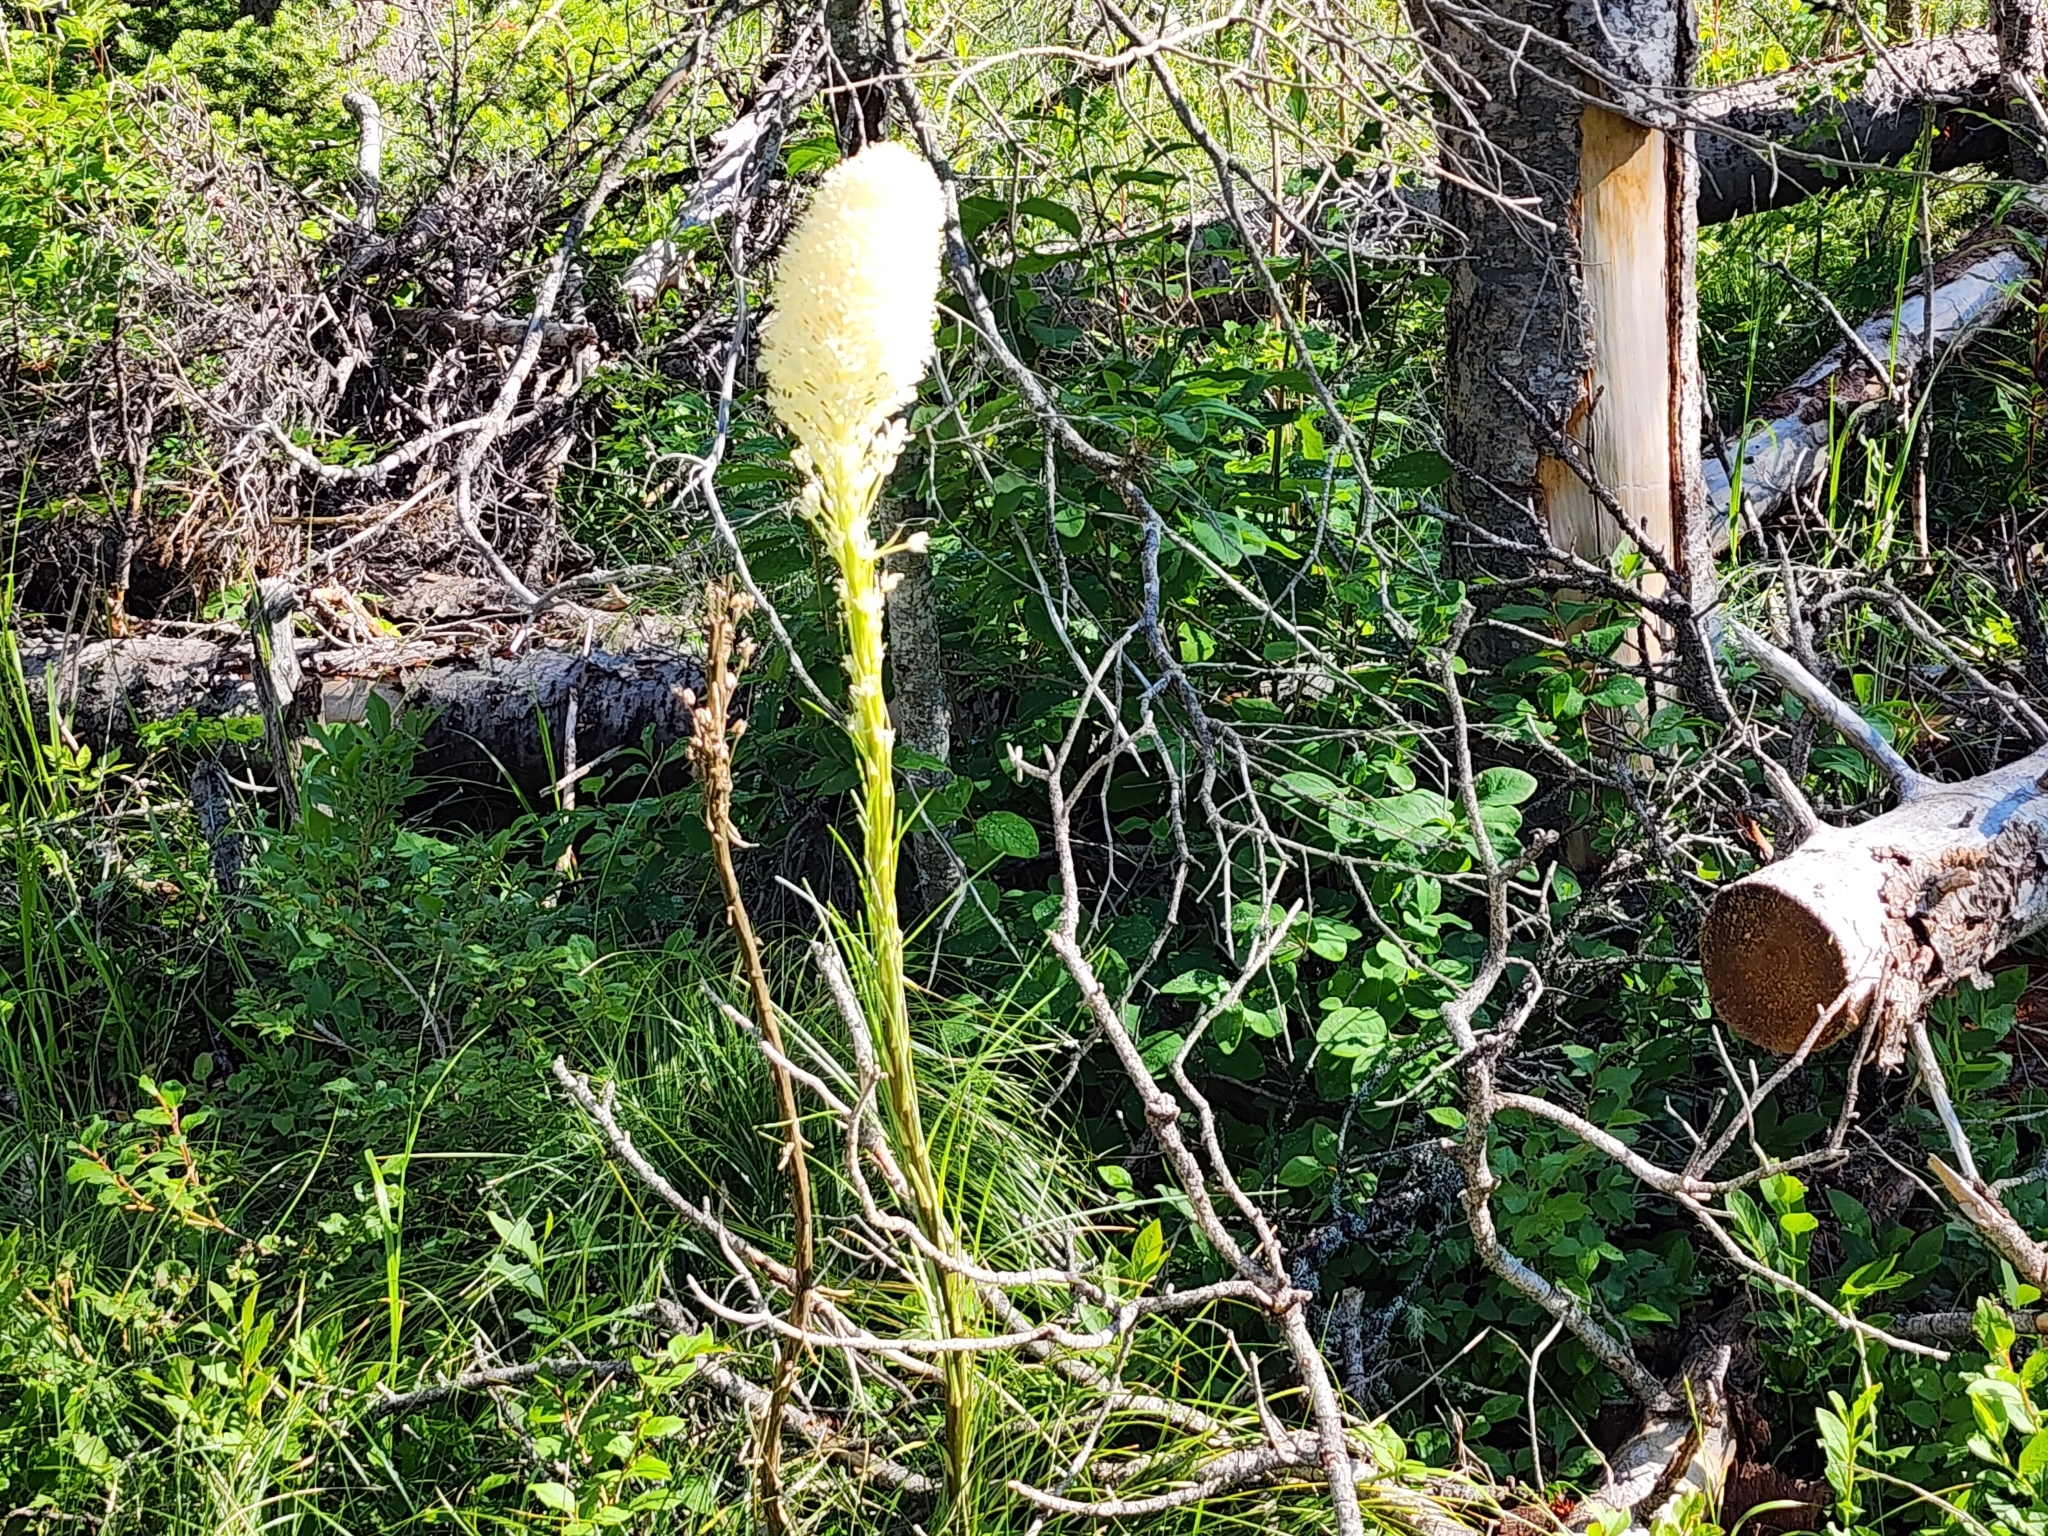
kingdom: Plantae
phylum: Tracheophyta
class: Liliopsida
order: Liliales
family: Melanthiaceae
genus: Xerophyllum
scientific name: Xerophyllum tenax
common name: Bear-grass
